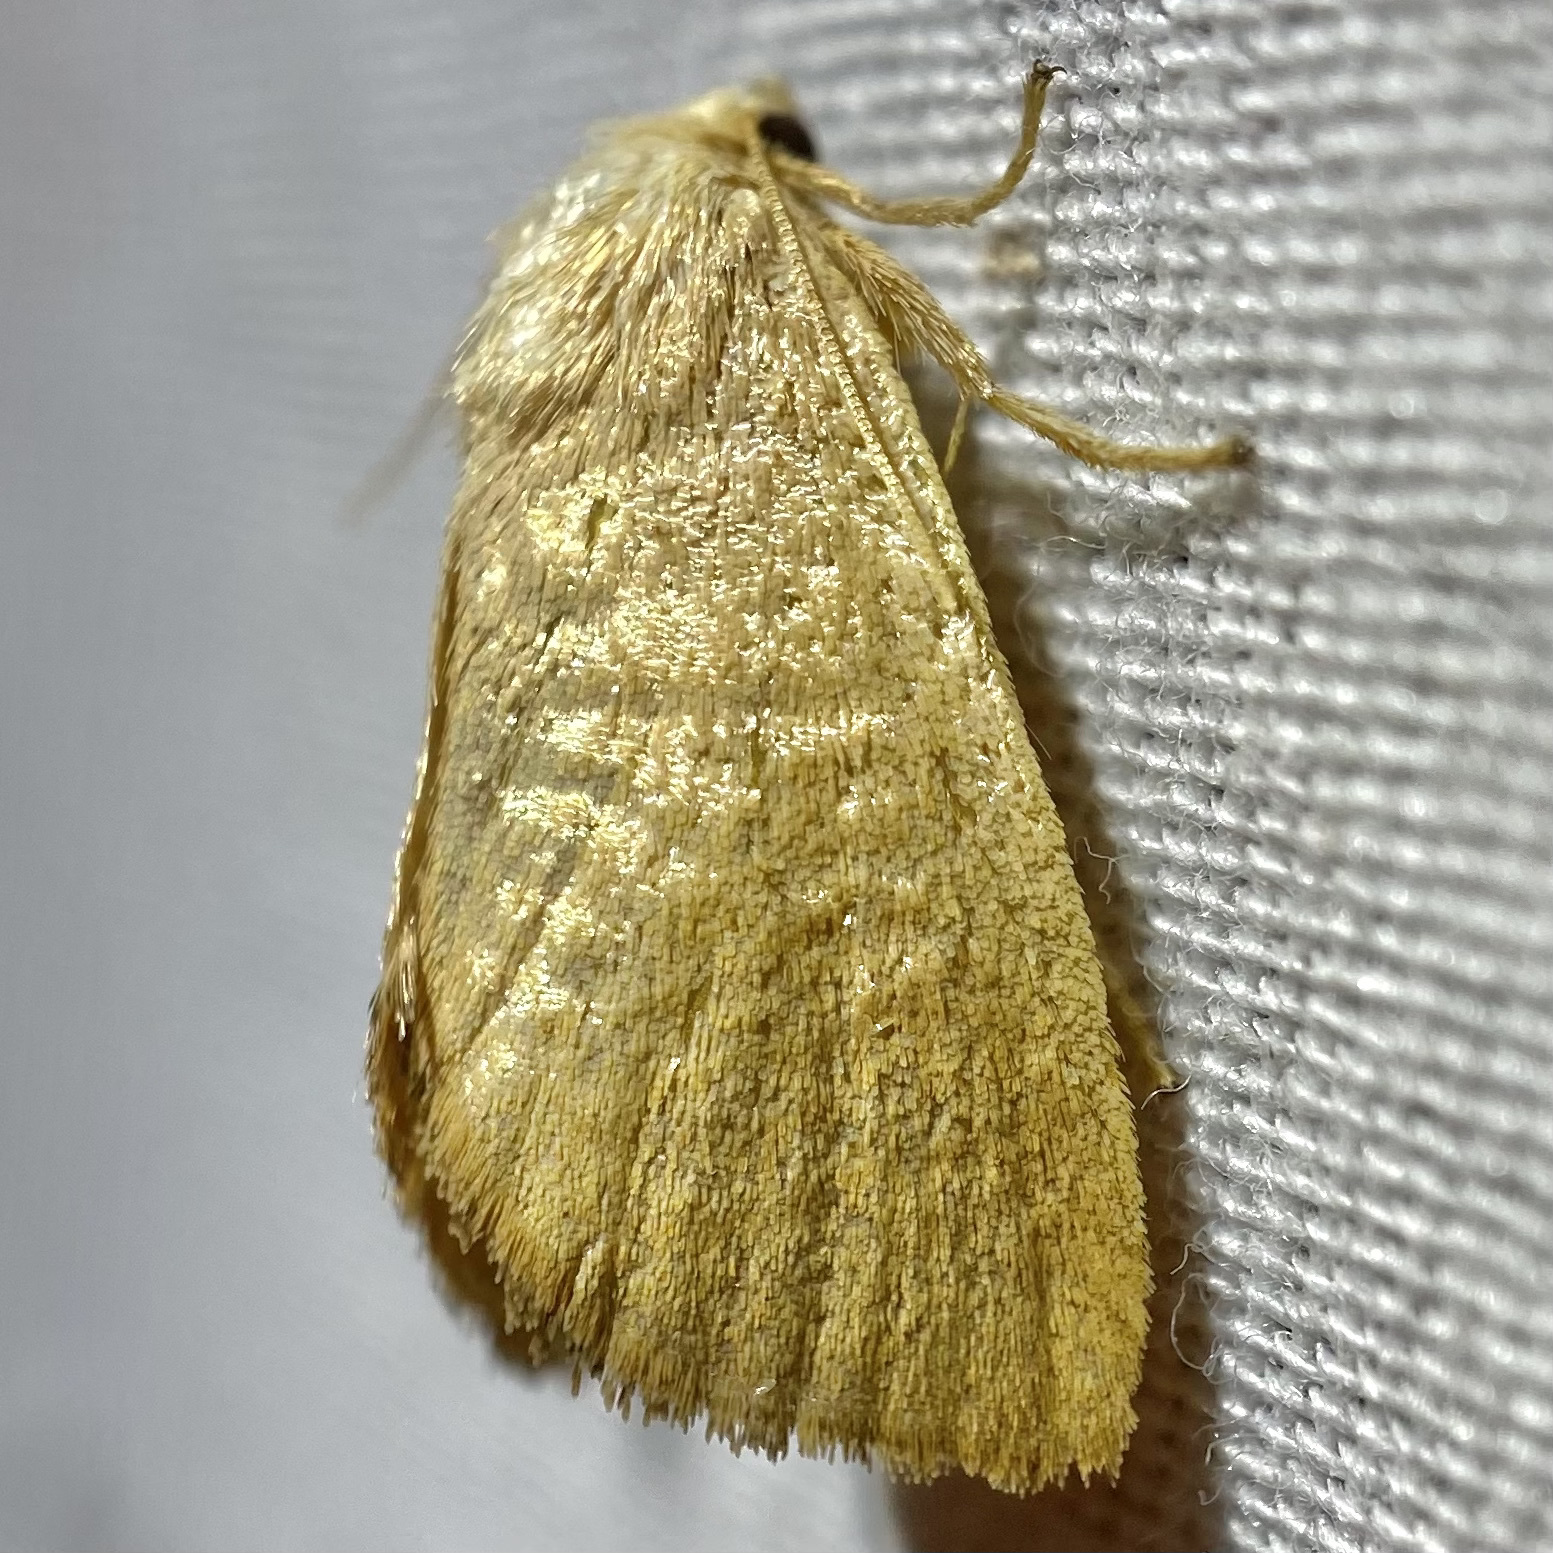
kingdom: Animalia
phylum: Arthropoda
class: Insecta
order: Lepidoptera
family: Limacodidae
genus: Isa
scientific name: Isa schaefferana
